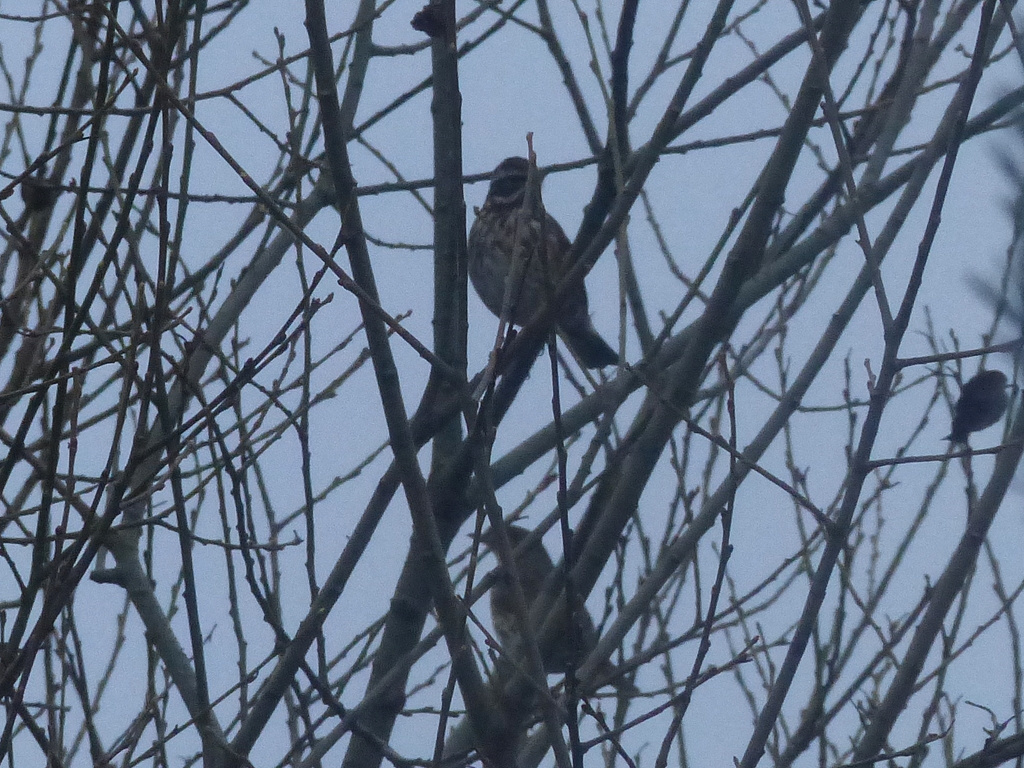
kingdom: Animalia
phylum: Chordata
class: Aves
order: Passeriformes
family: Turdidae
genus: Turdus
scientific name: Turdus iliacus
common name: Redwing
